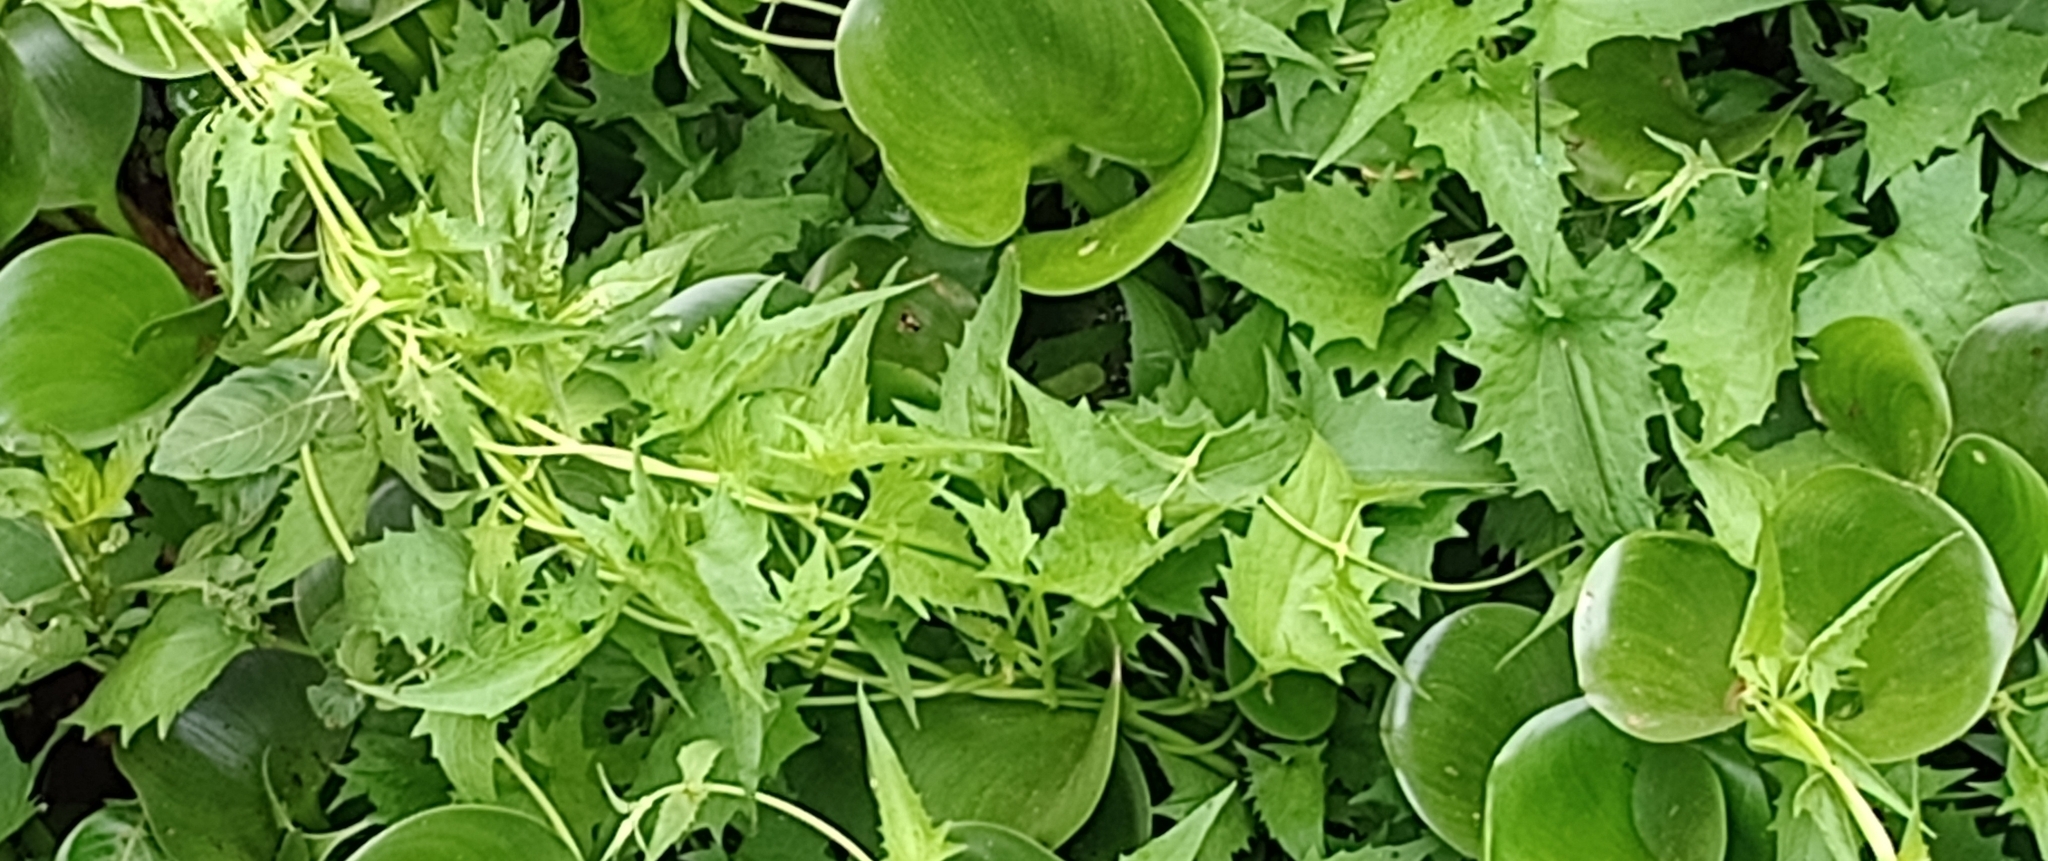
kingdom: Plantae
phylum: Tracheophyta
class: Magnoliopsida
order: Asterales
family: Asteraceae
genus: Mikania
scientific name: Mikania micrantha
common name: Mile-a-minute
